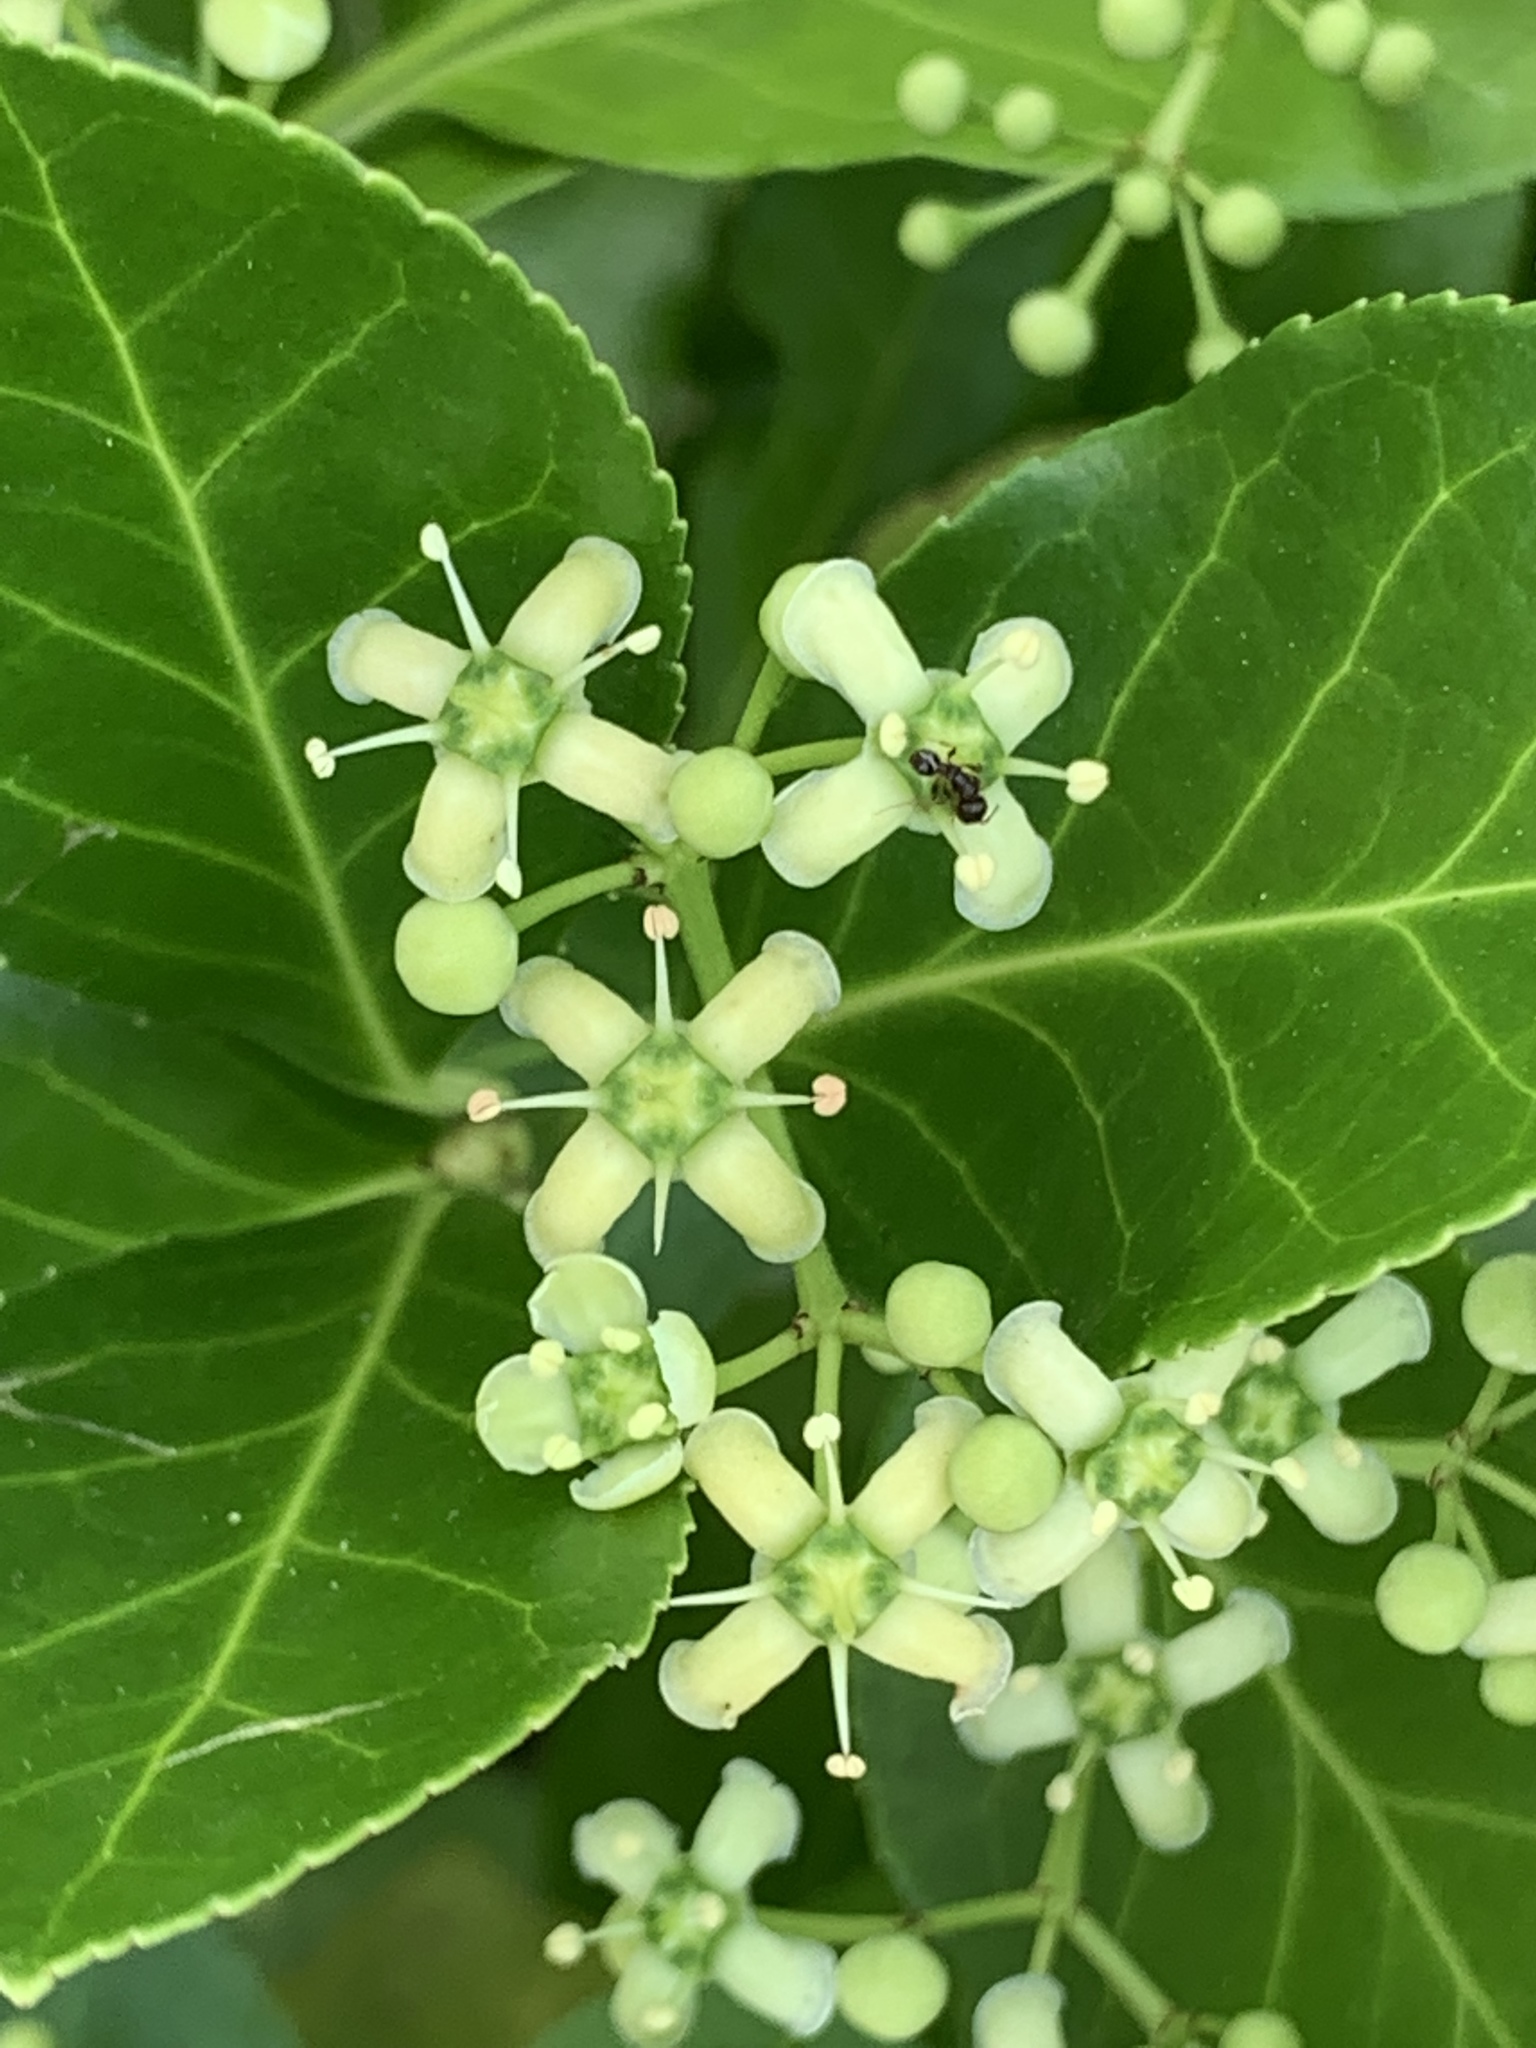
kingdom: Plantae
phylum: Tracheophyta
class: Magnoliopsida
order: Celastrales
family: Celastraceae
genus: Euonymus
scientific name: Euonymus japonicus
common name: Japanese spindletree
